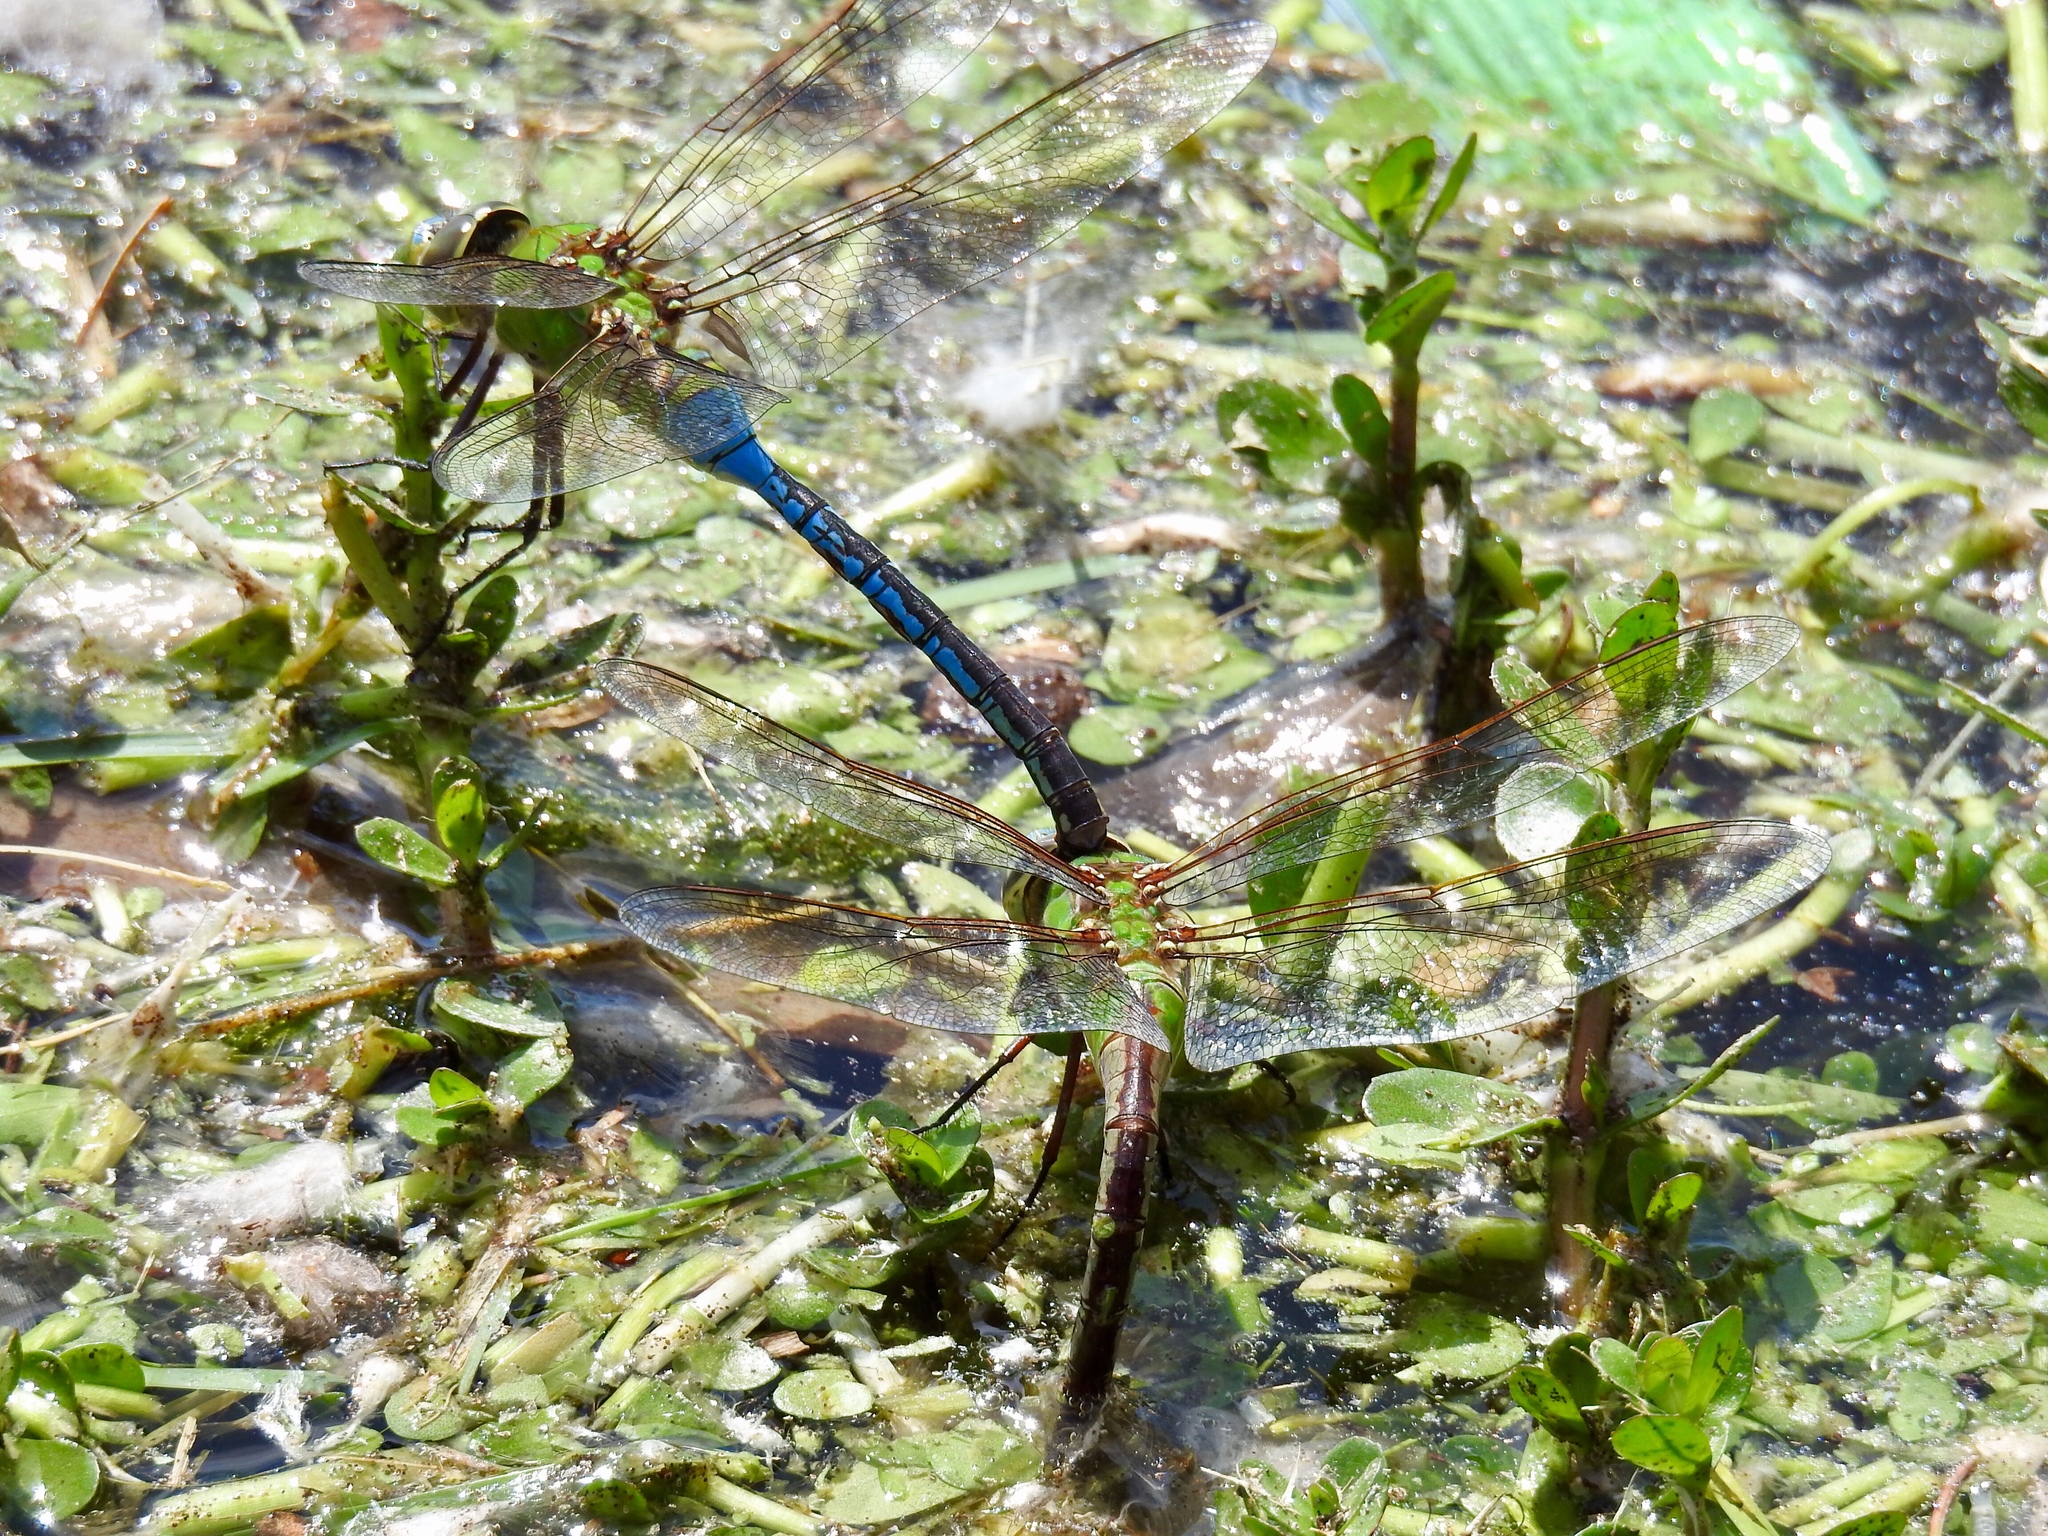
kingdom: Animalia
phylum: Arthropoda
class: Insecta
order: Odonata
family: Aeshnidae
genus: Anax
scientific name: Anax junius
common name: Common green darner
